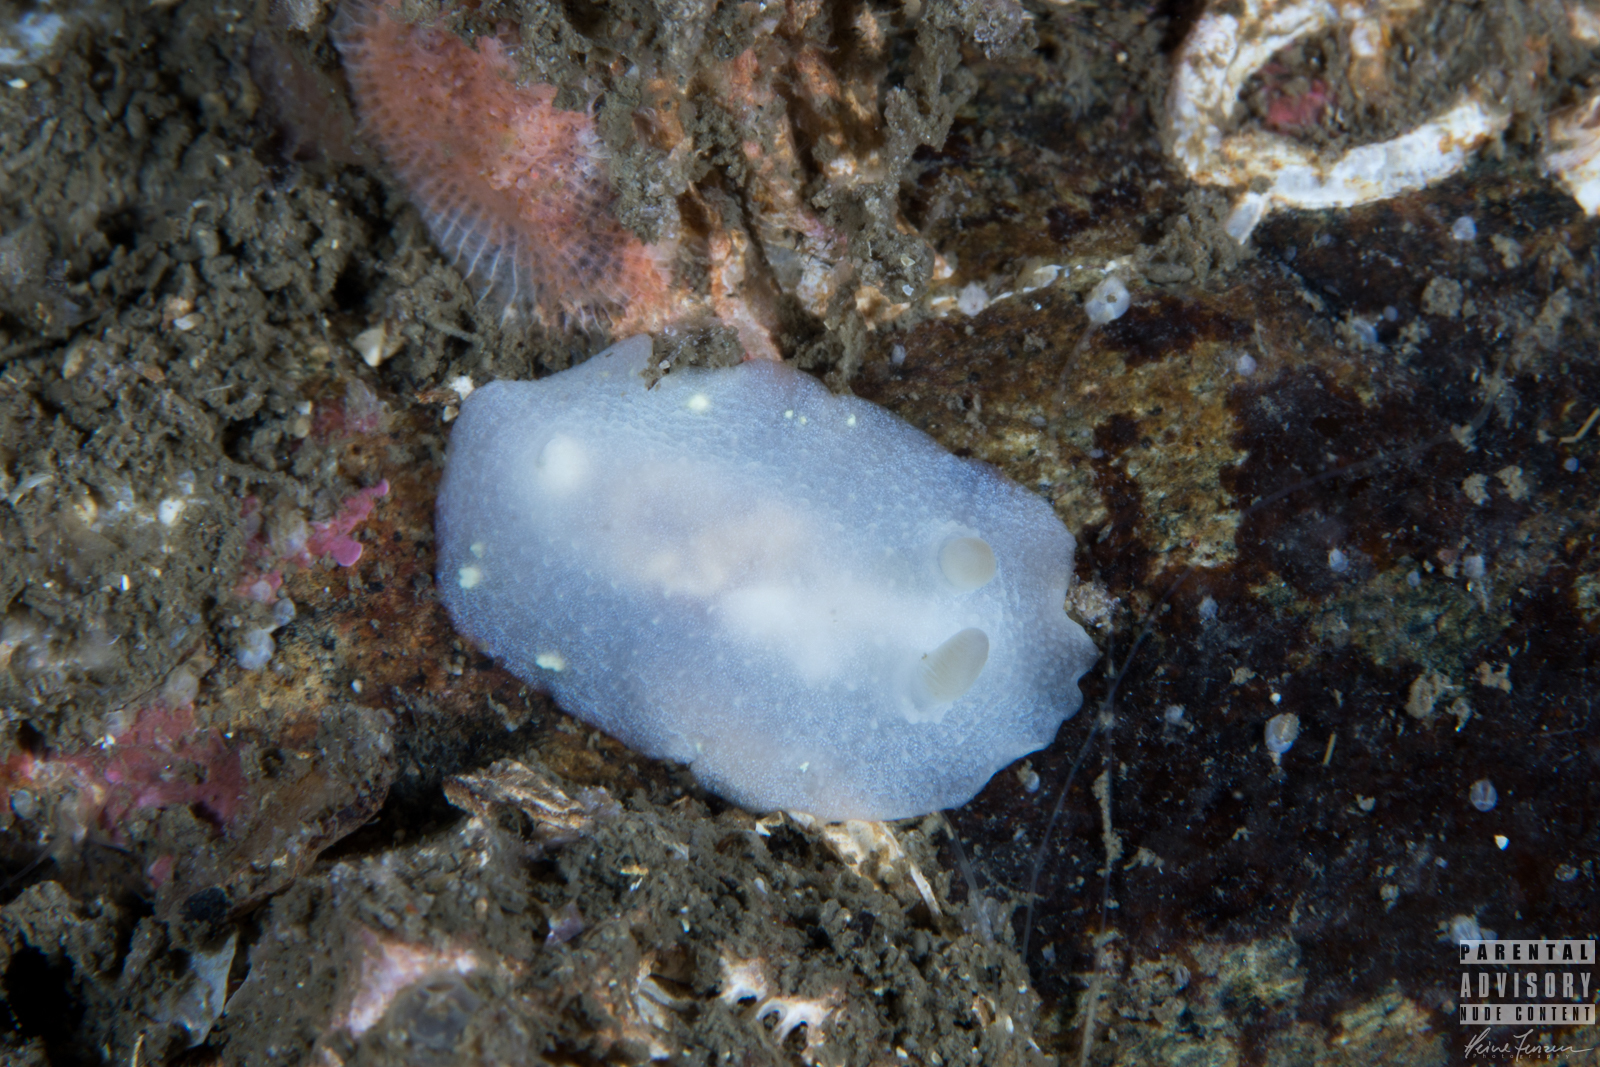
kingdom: Animalia
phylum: Mollusca
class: Gastropoda
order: Nudibranchia
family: Cadlinidae
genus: Cadlina
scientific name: Cadlina laevis
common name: White atlantic cadlina
